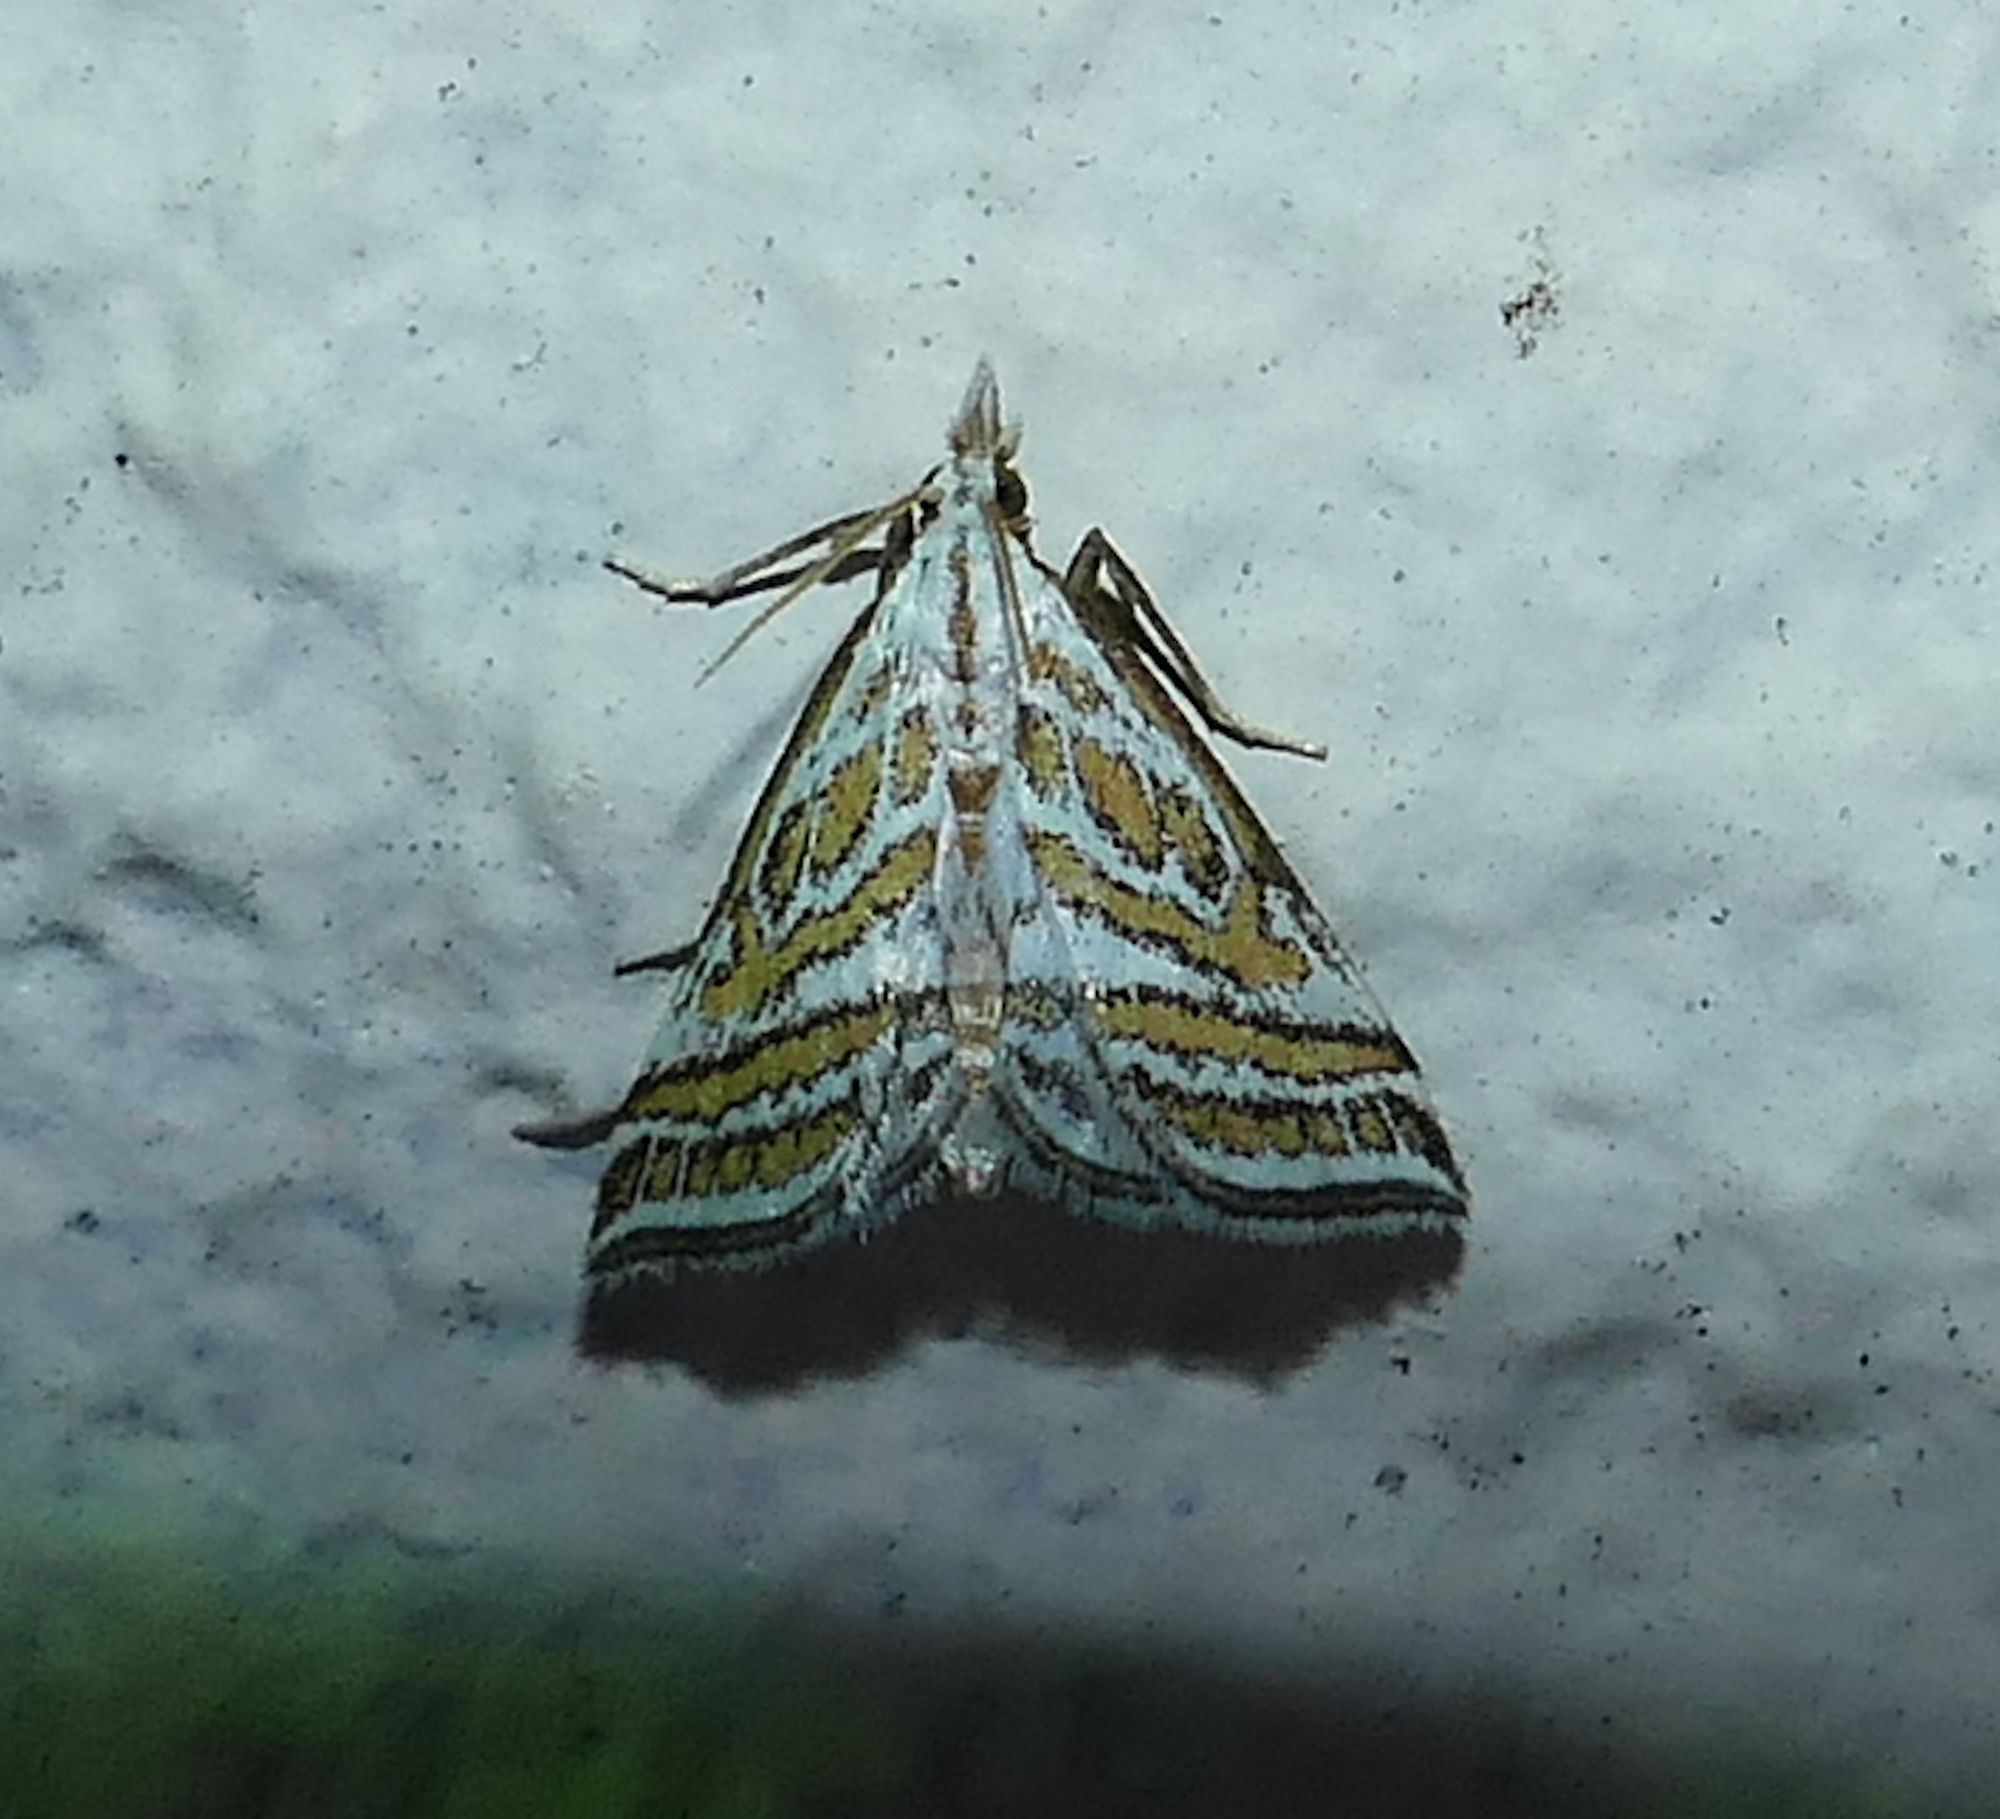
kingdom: Animalia
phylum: Arthropoda
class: Insecta
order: Lepidoptera
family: Crambidae
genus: Leptosteges
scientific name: Leptosteges
